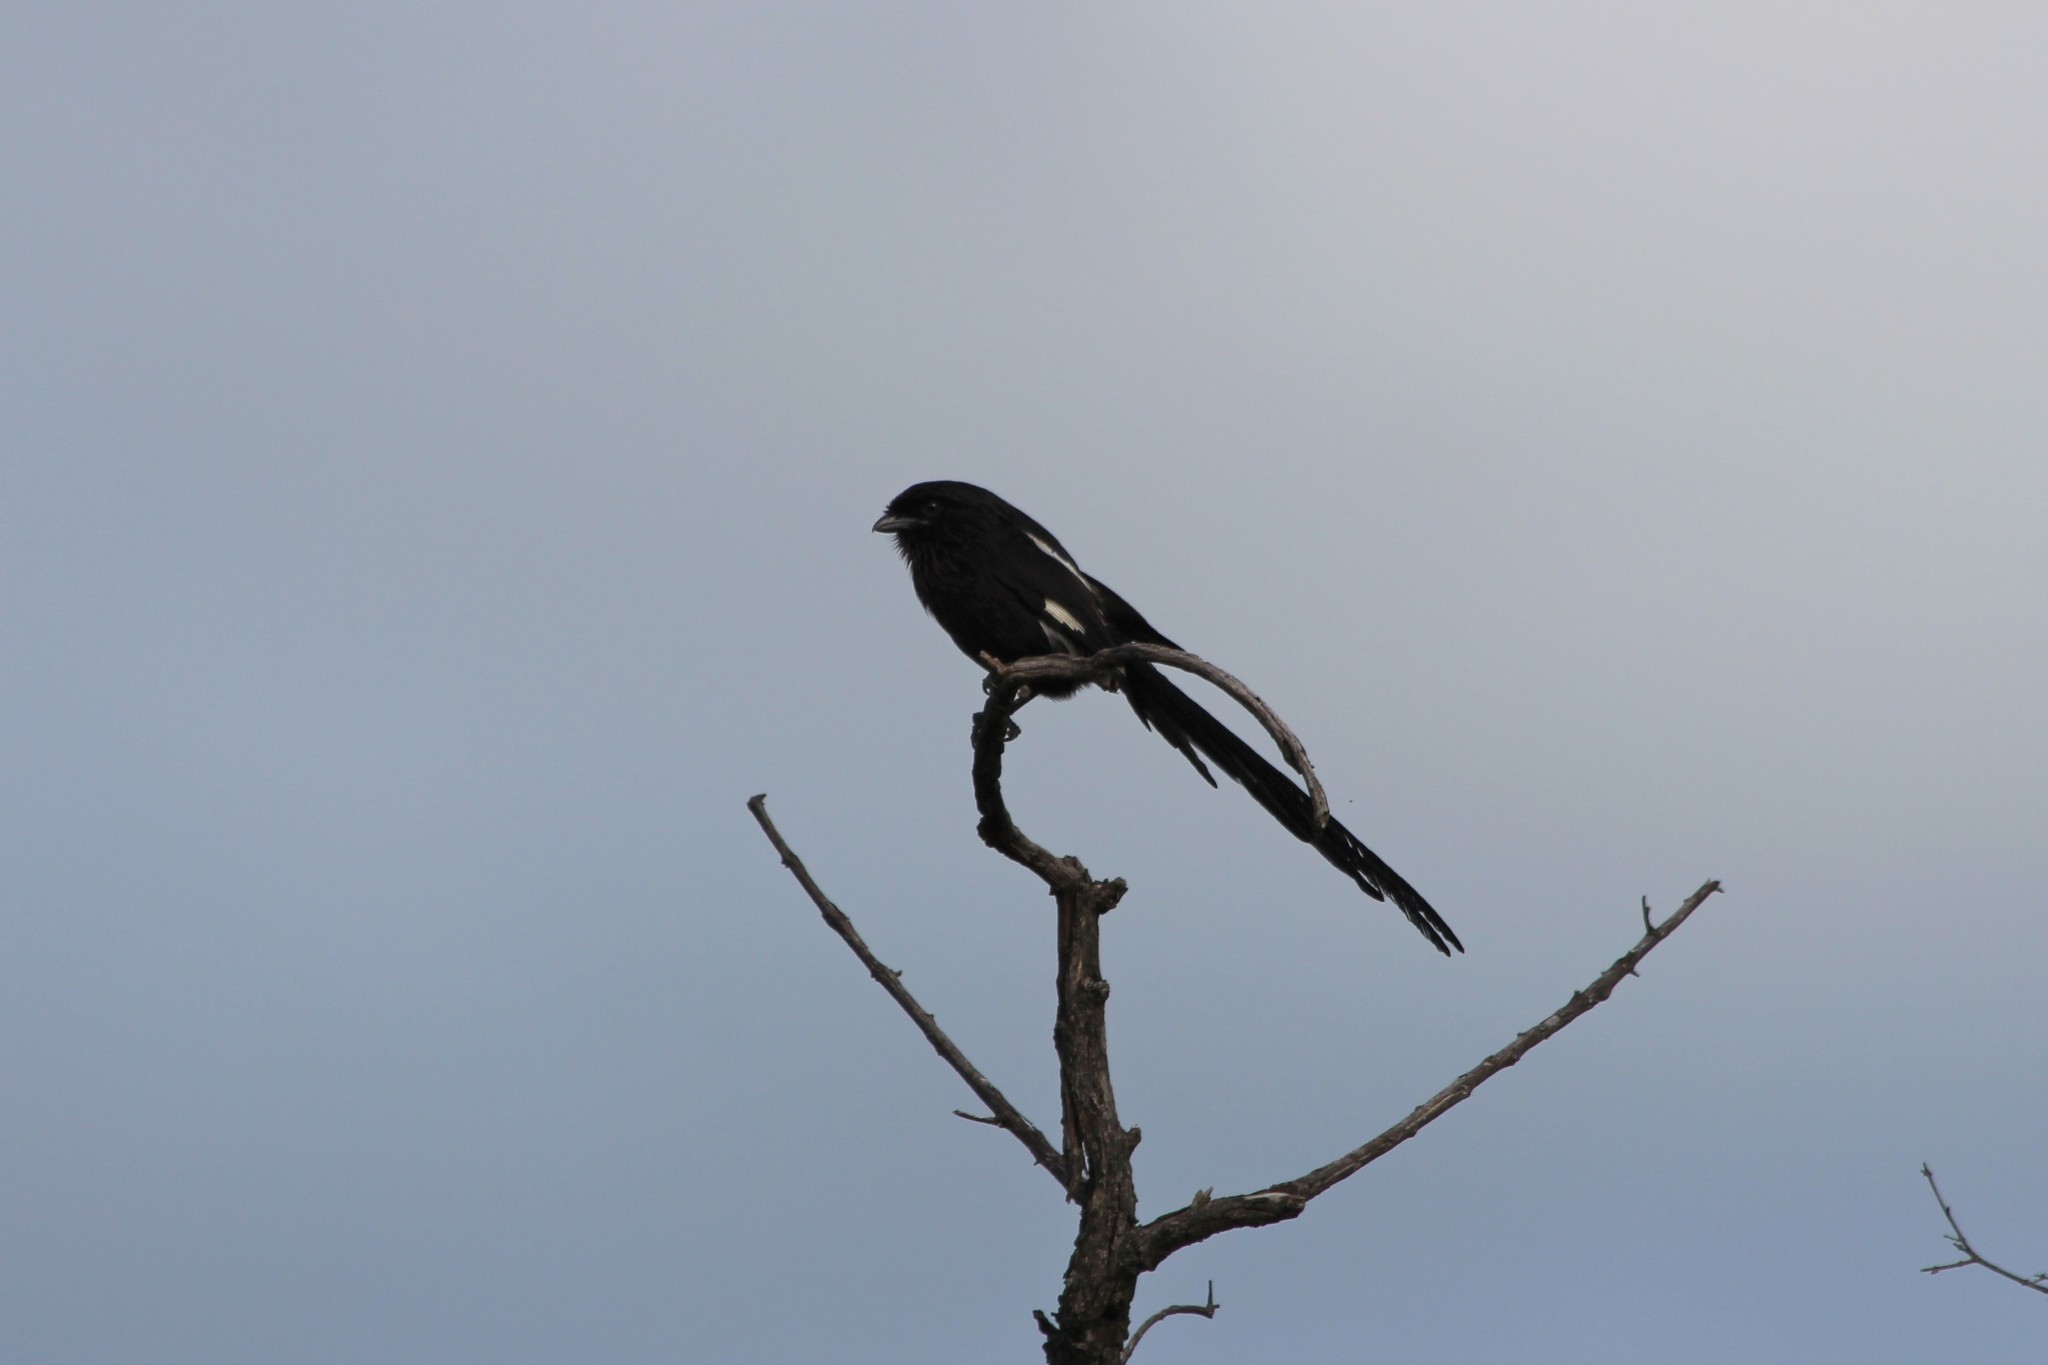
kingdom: Animalia
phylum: Chordata
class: Aves
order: Passeriformes
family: Laniidae
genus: Urolestes
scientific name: Urolestes melanoleucus
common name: Magpie shrike
